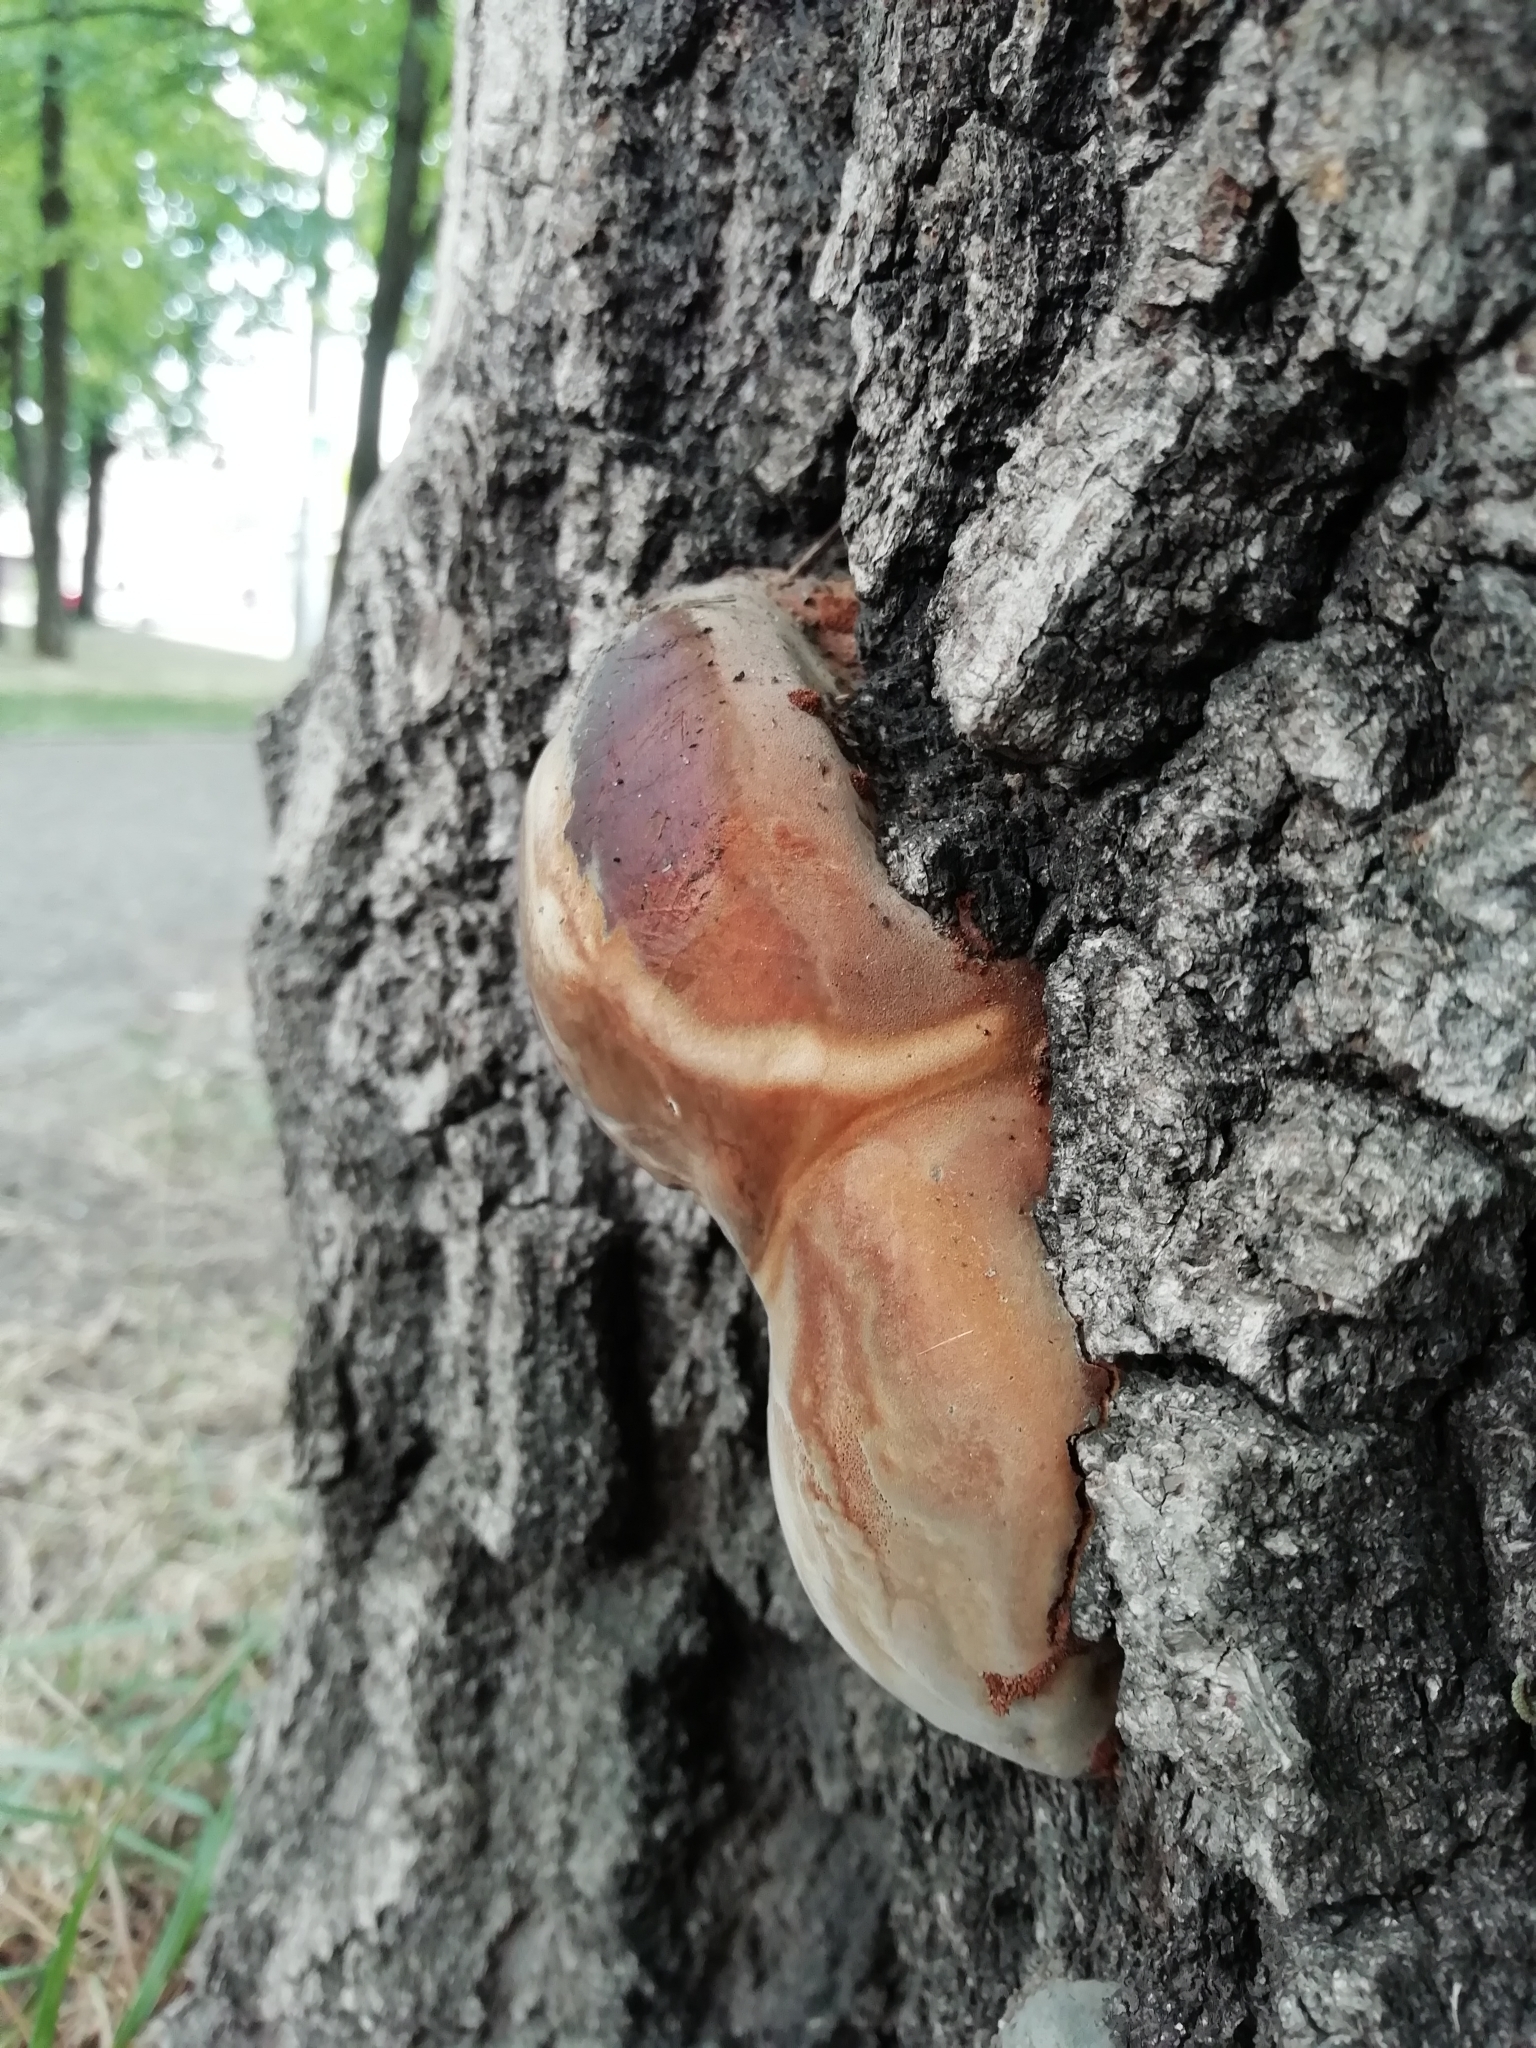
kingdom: Fungi
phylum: Basidiomycota
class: Agaricomycetes
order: Hymenochaetales
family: Hymenochaetaceae
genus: Fomitiporia
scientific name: Fomitiporia robusta
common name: Robust bracket
